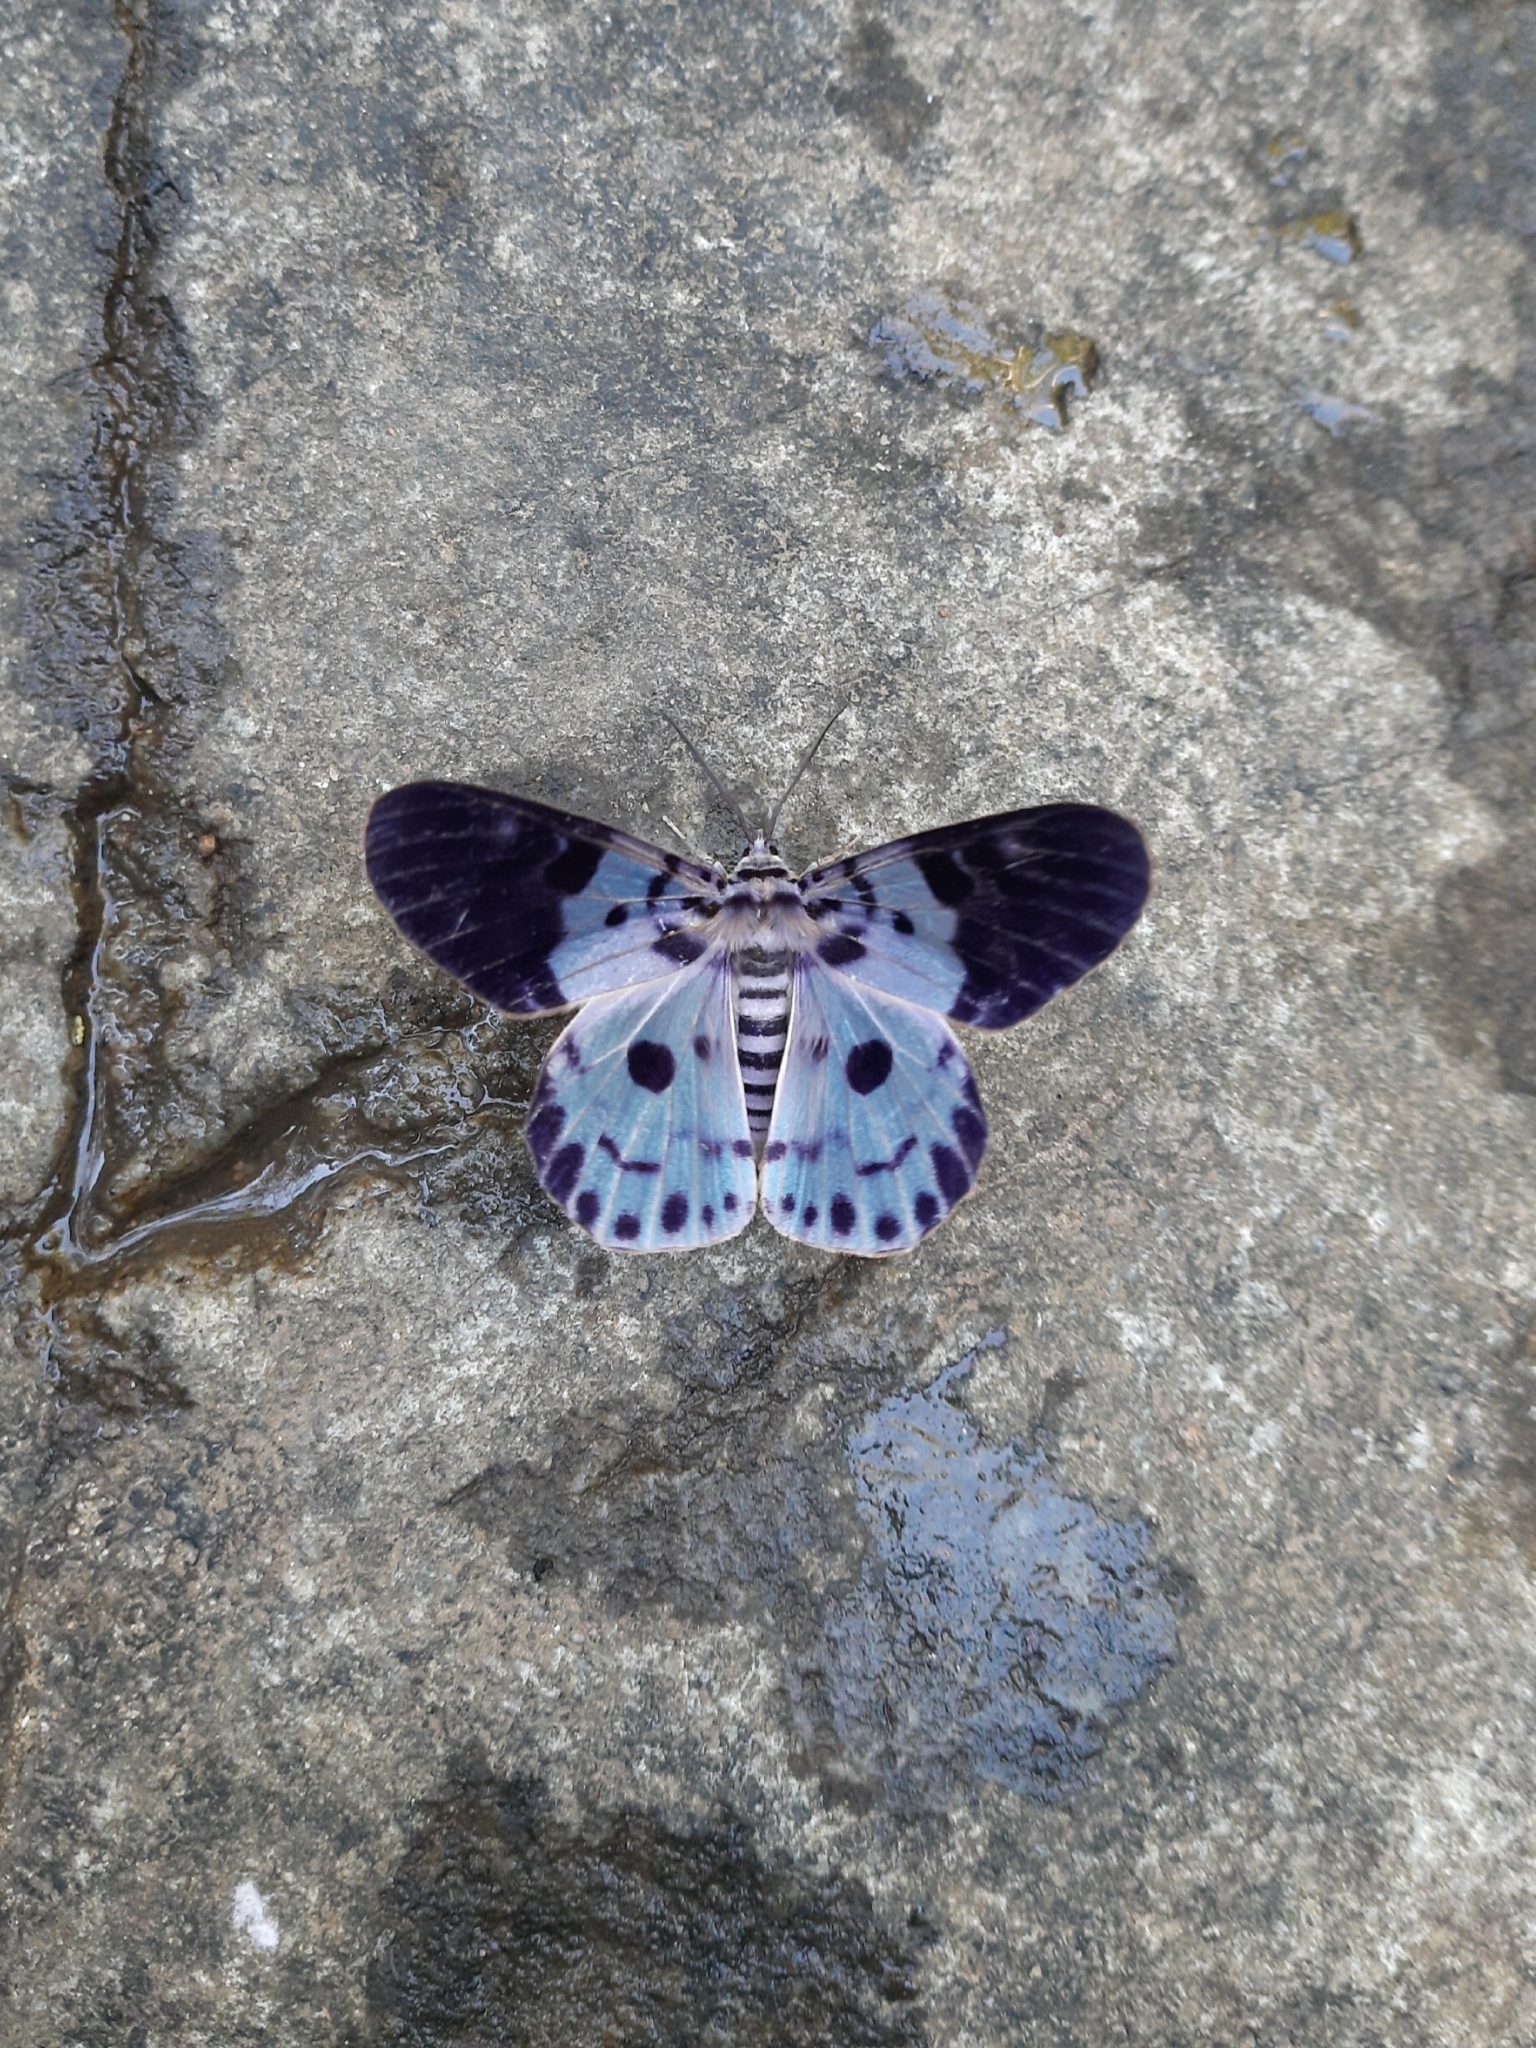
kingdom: Animalia
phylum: Arthropoda
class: Insecta
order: Lepidoptera
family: Geometridae
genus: Dysphania
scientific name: Dysphania percota
